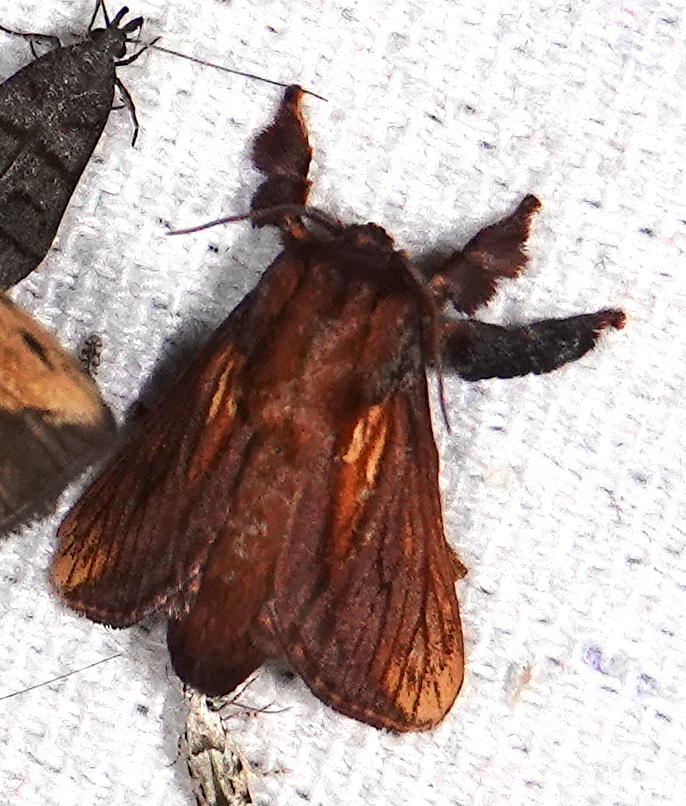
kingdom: Animalia
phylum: Arthropoda
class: Insecta
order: Lepidoptera
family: Limacodidae
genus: Talima
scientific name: Talima ingenour
